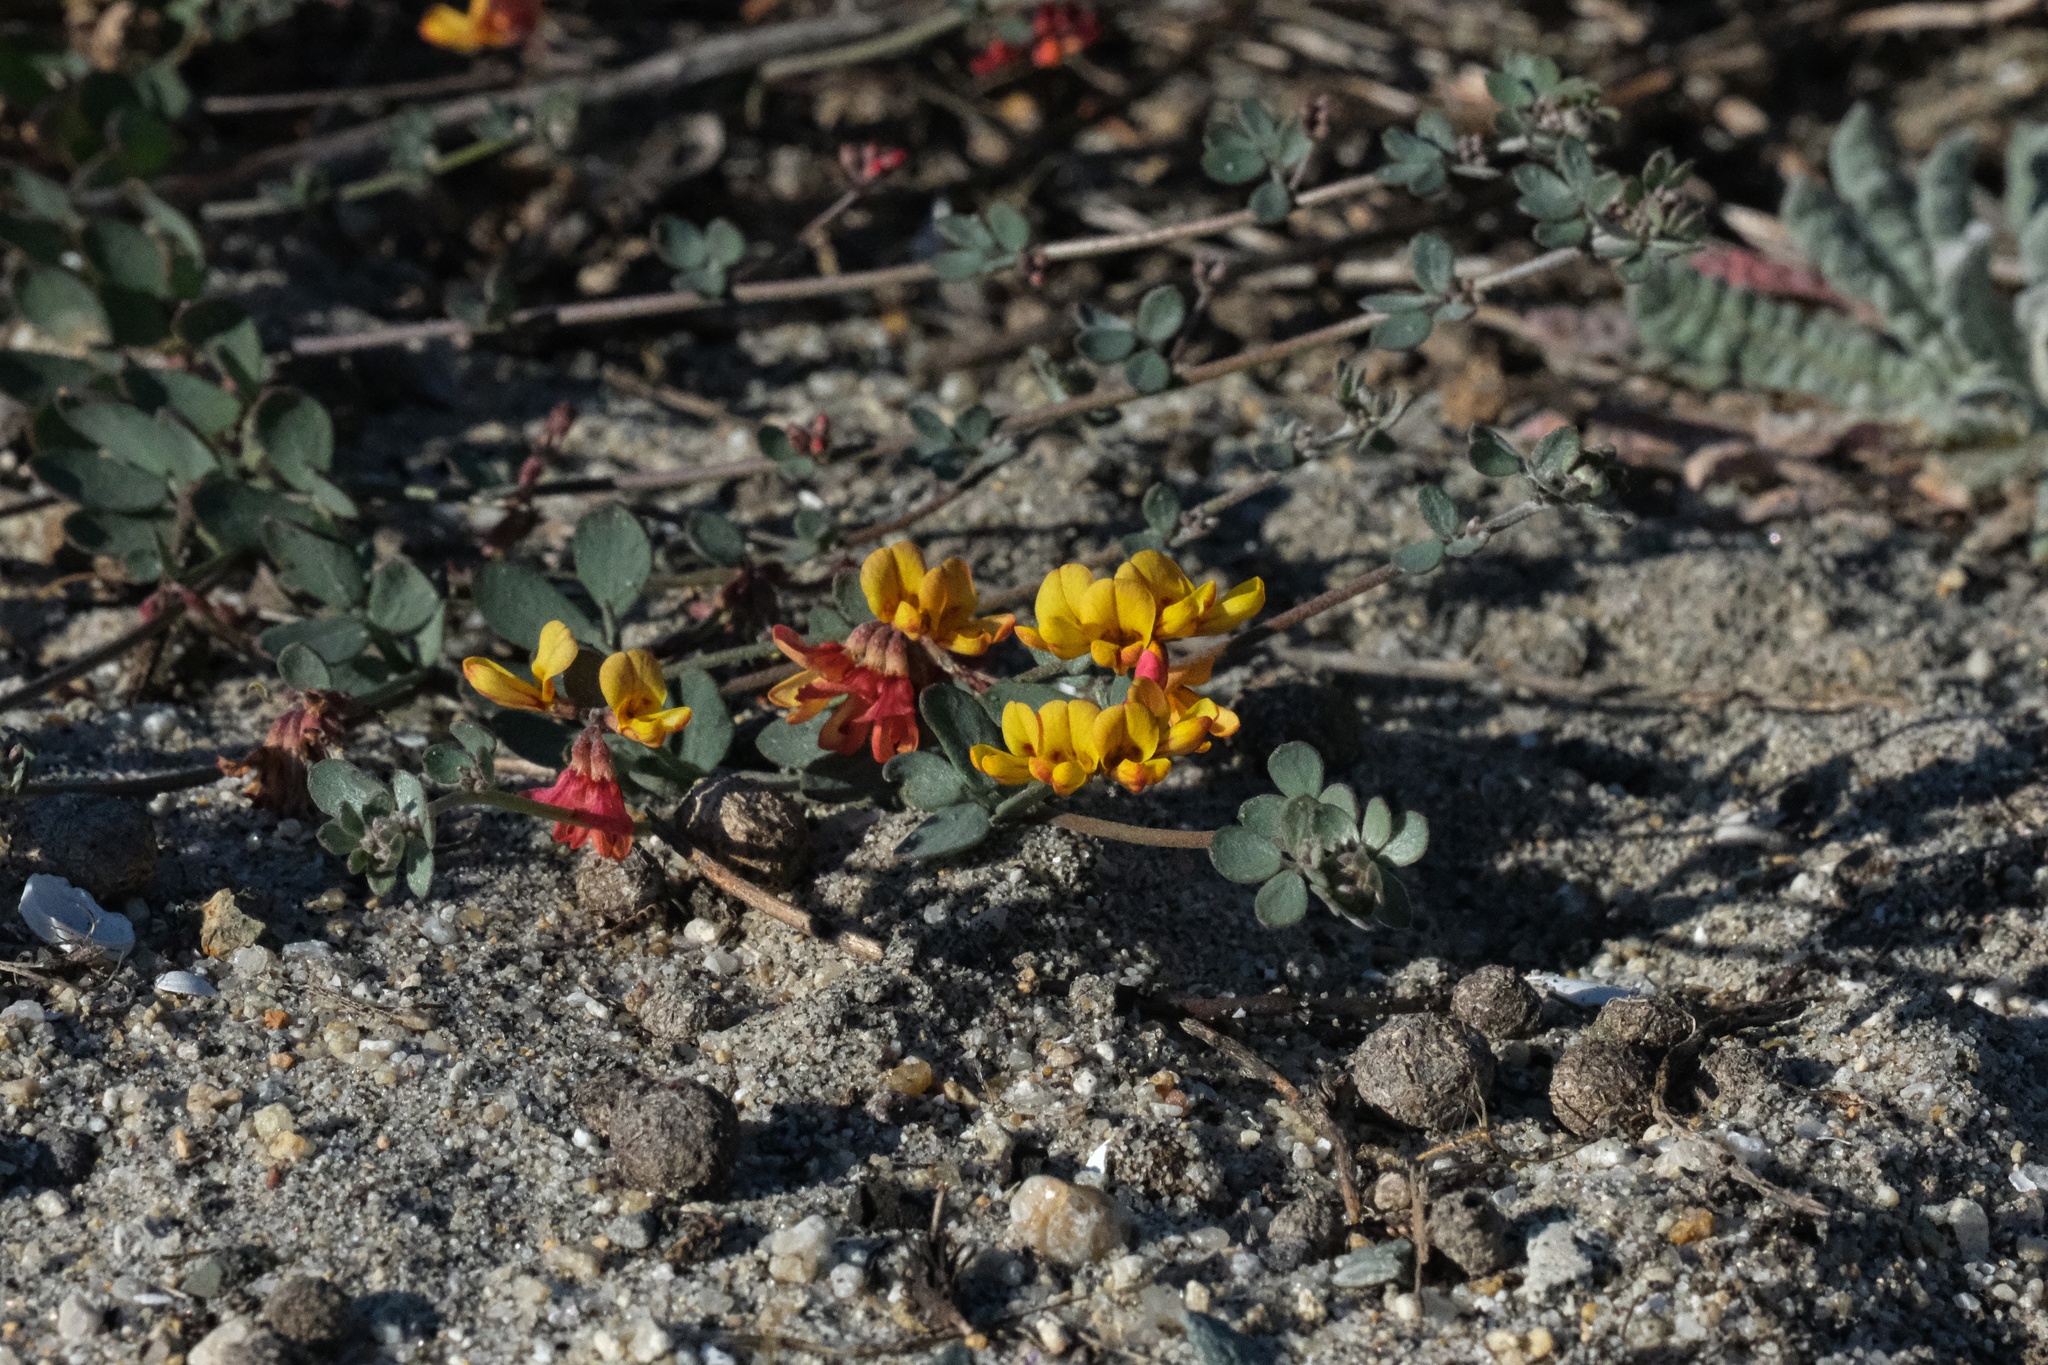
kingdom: Plantae
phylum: Tracheophyta
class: Magnoliopsida
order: Fabales
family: Fabaceae
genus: Acmispon
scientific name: Acmispon prostratus
